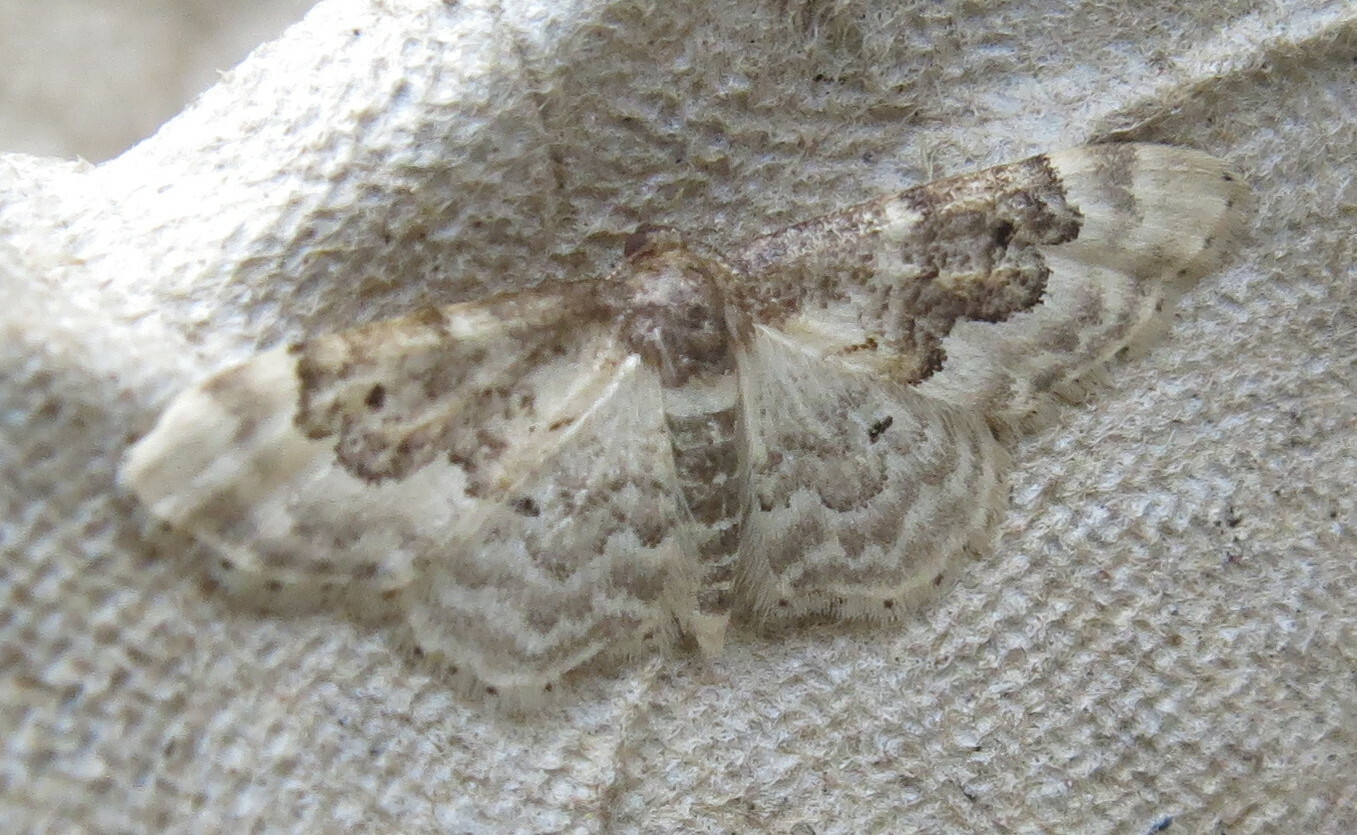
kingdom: Animalia
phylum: Arthropoda
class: Insecta
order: Lepidoptera
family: Geometridae
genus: Idaea
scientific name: Idaea rusticata
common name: Least carpet
